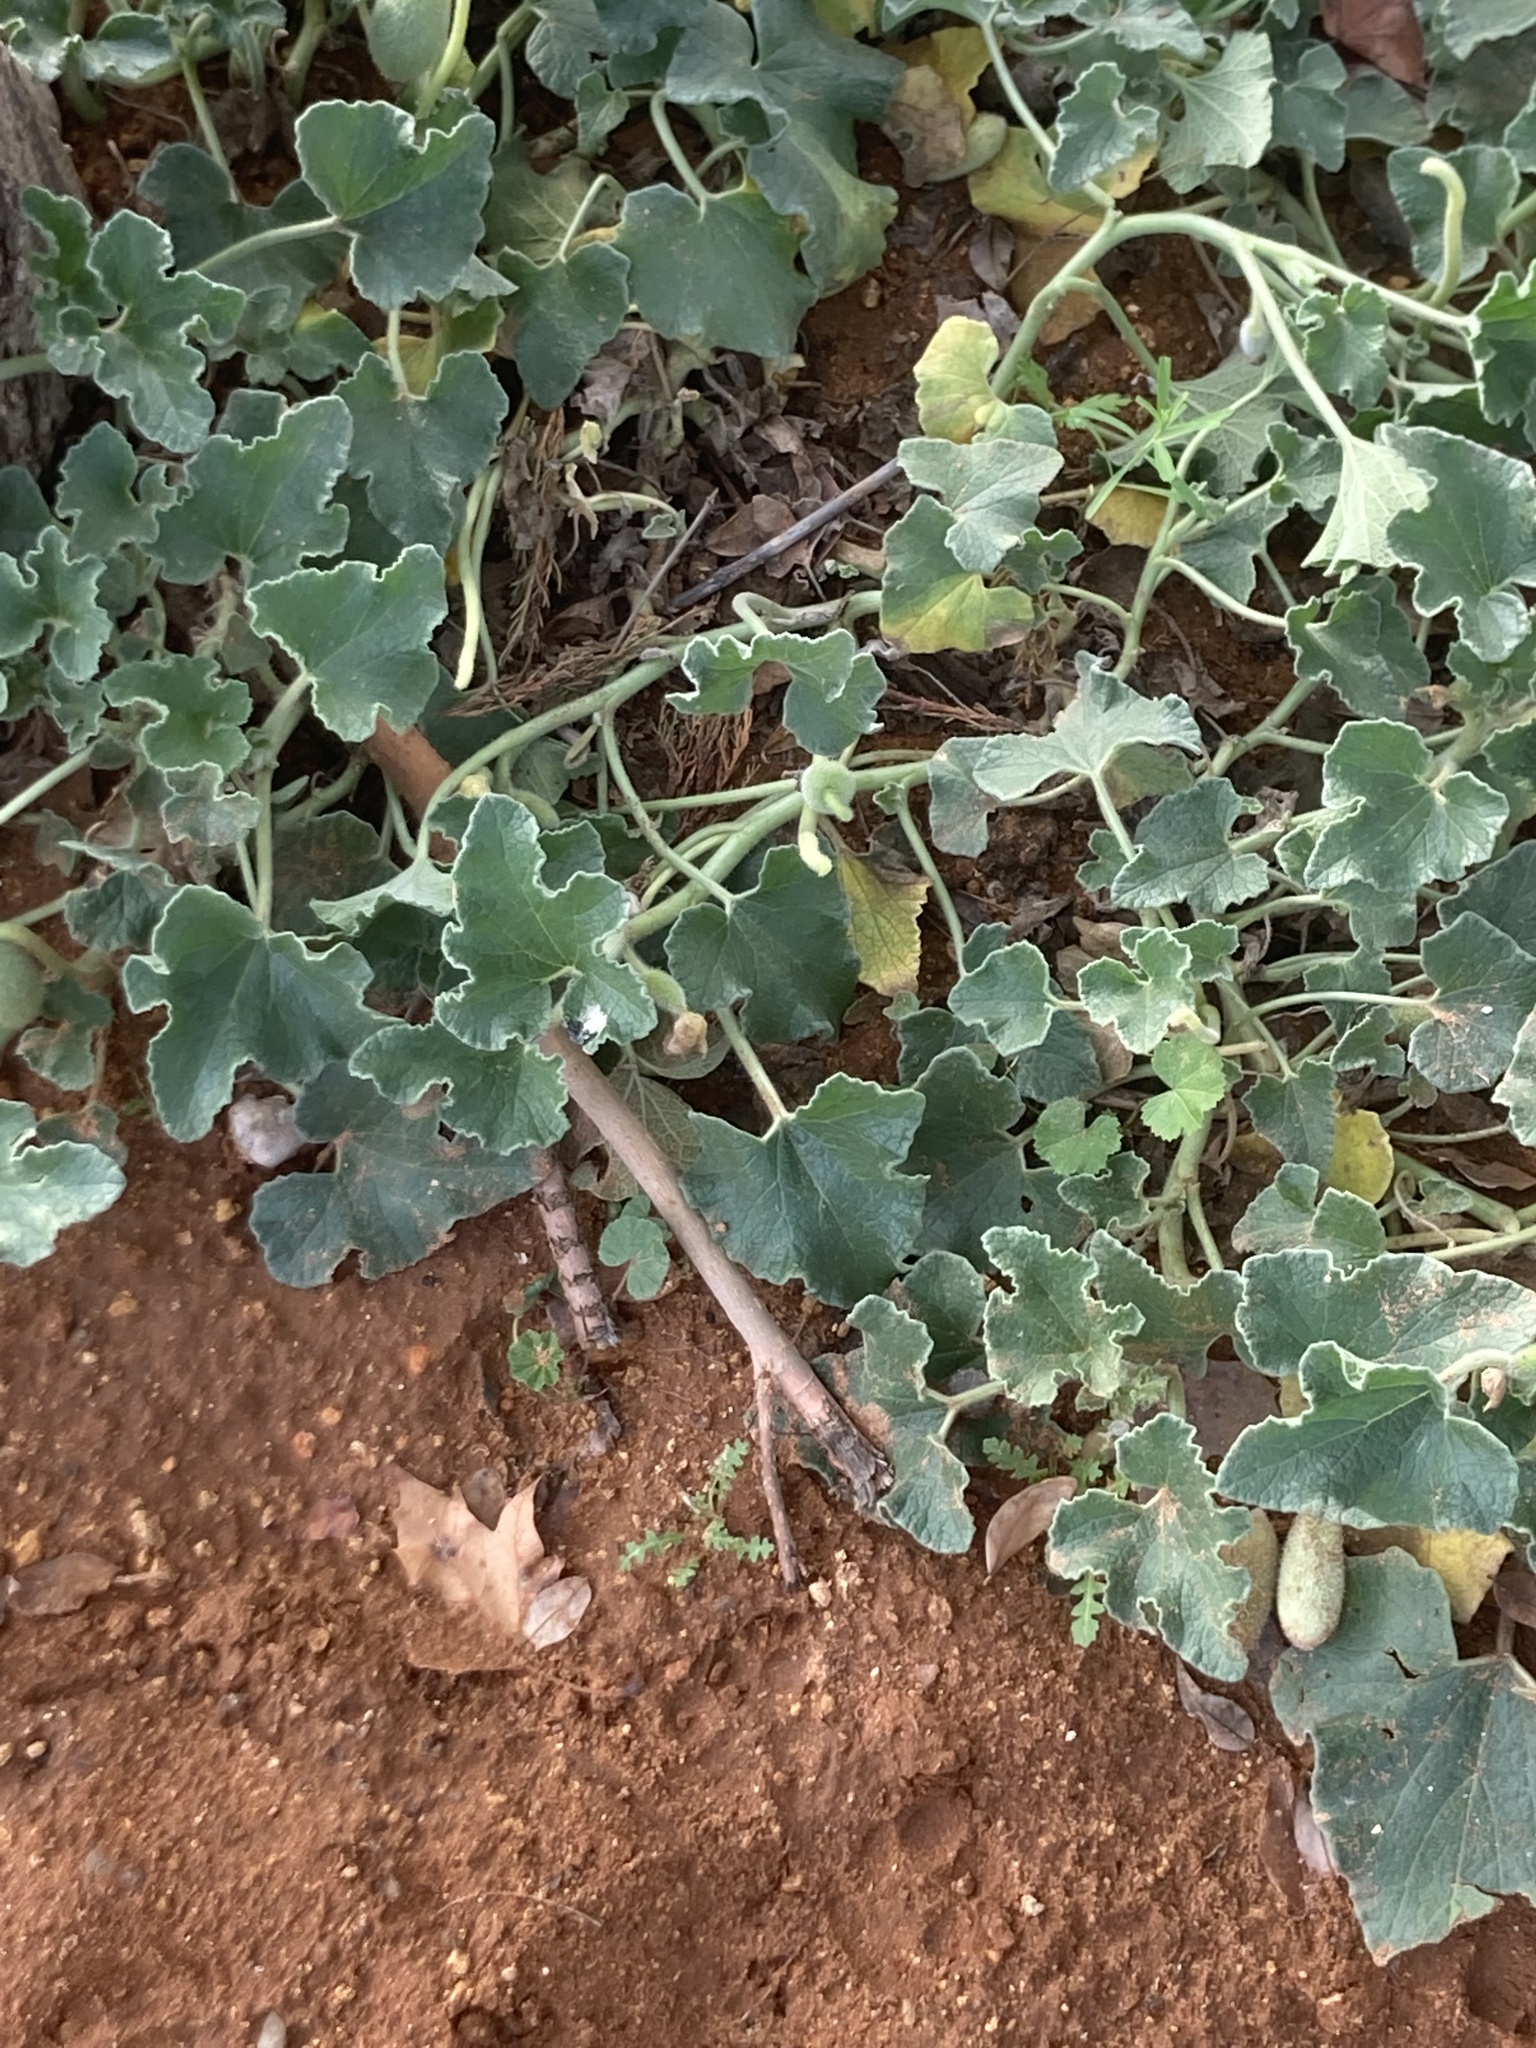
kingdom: Plantae
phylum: Tracheophyta
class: Magnoliopsida
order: Cucurbitales
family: Cucurbitaceae
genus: Ecballium
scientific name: Ecballium elaterium
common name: Squirting cucumber
